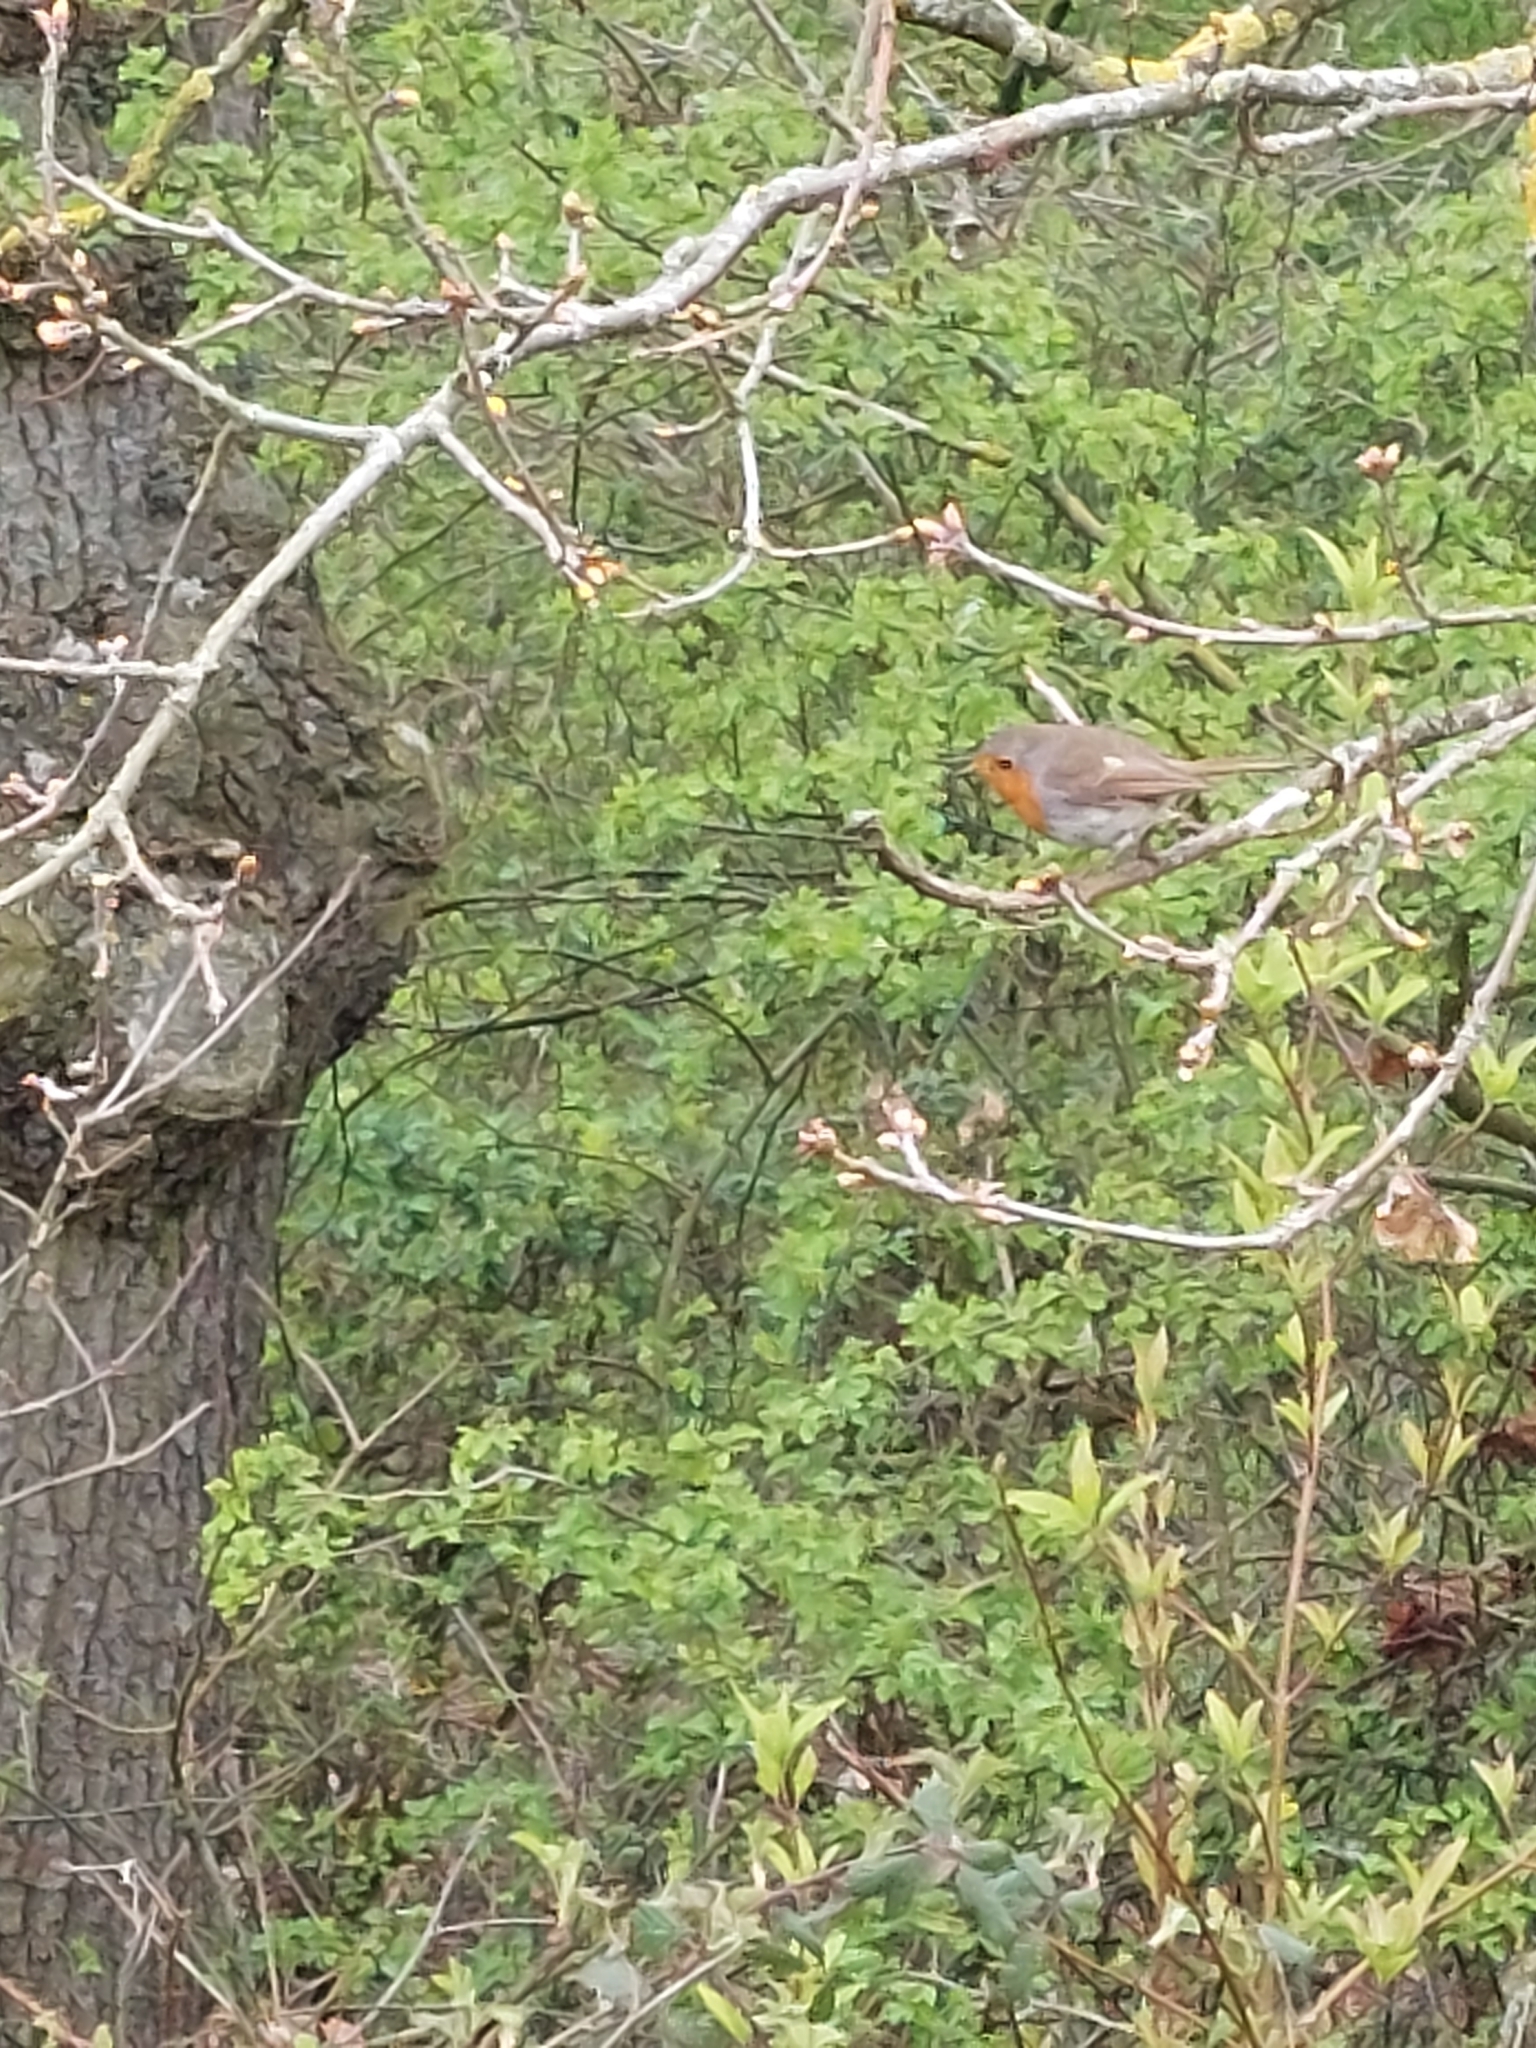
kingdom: Animalia
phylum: Chordata
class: Aves
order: Passeriformes
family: Muscicapidae
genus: Erithacus
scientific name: Erithacus rubecula
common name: European robin
